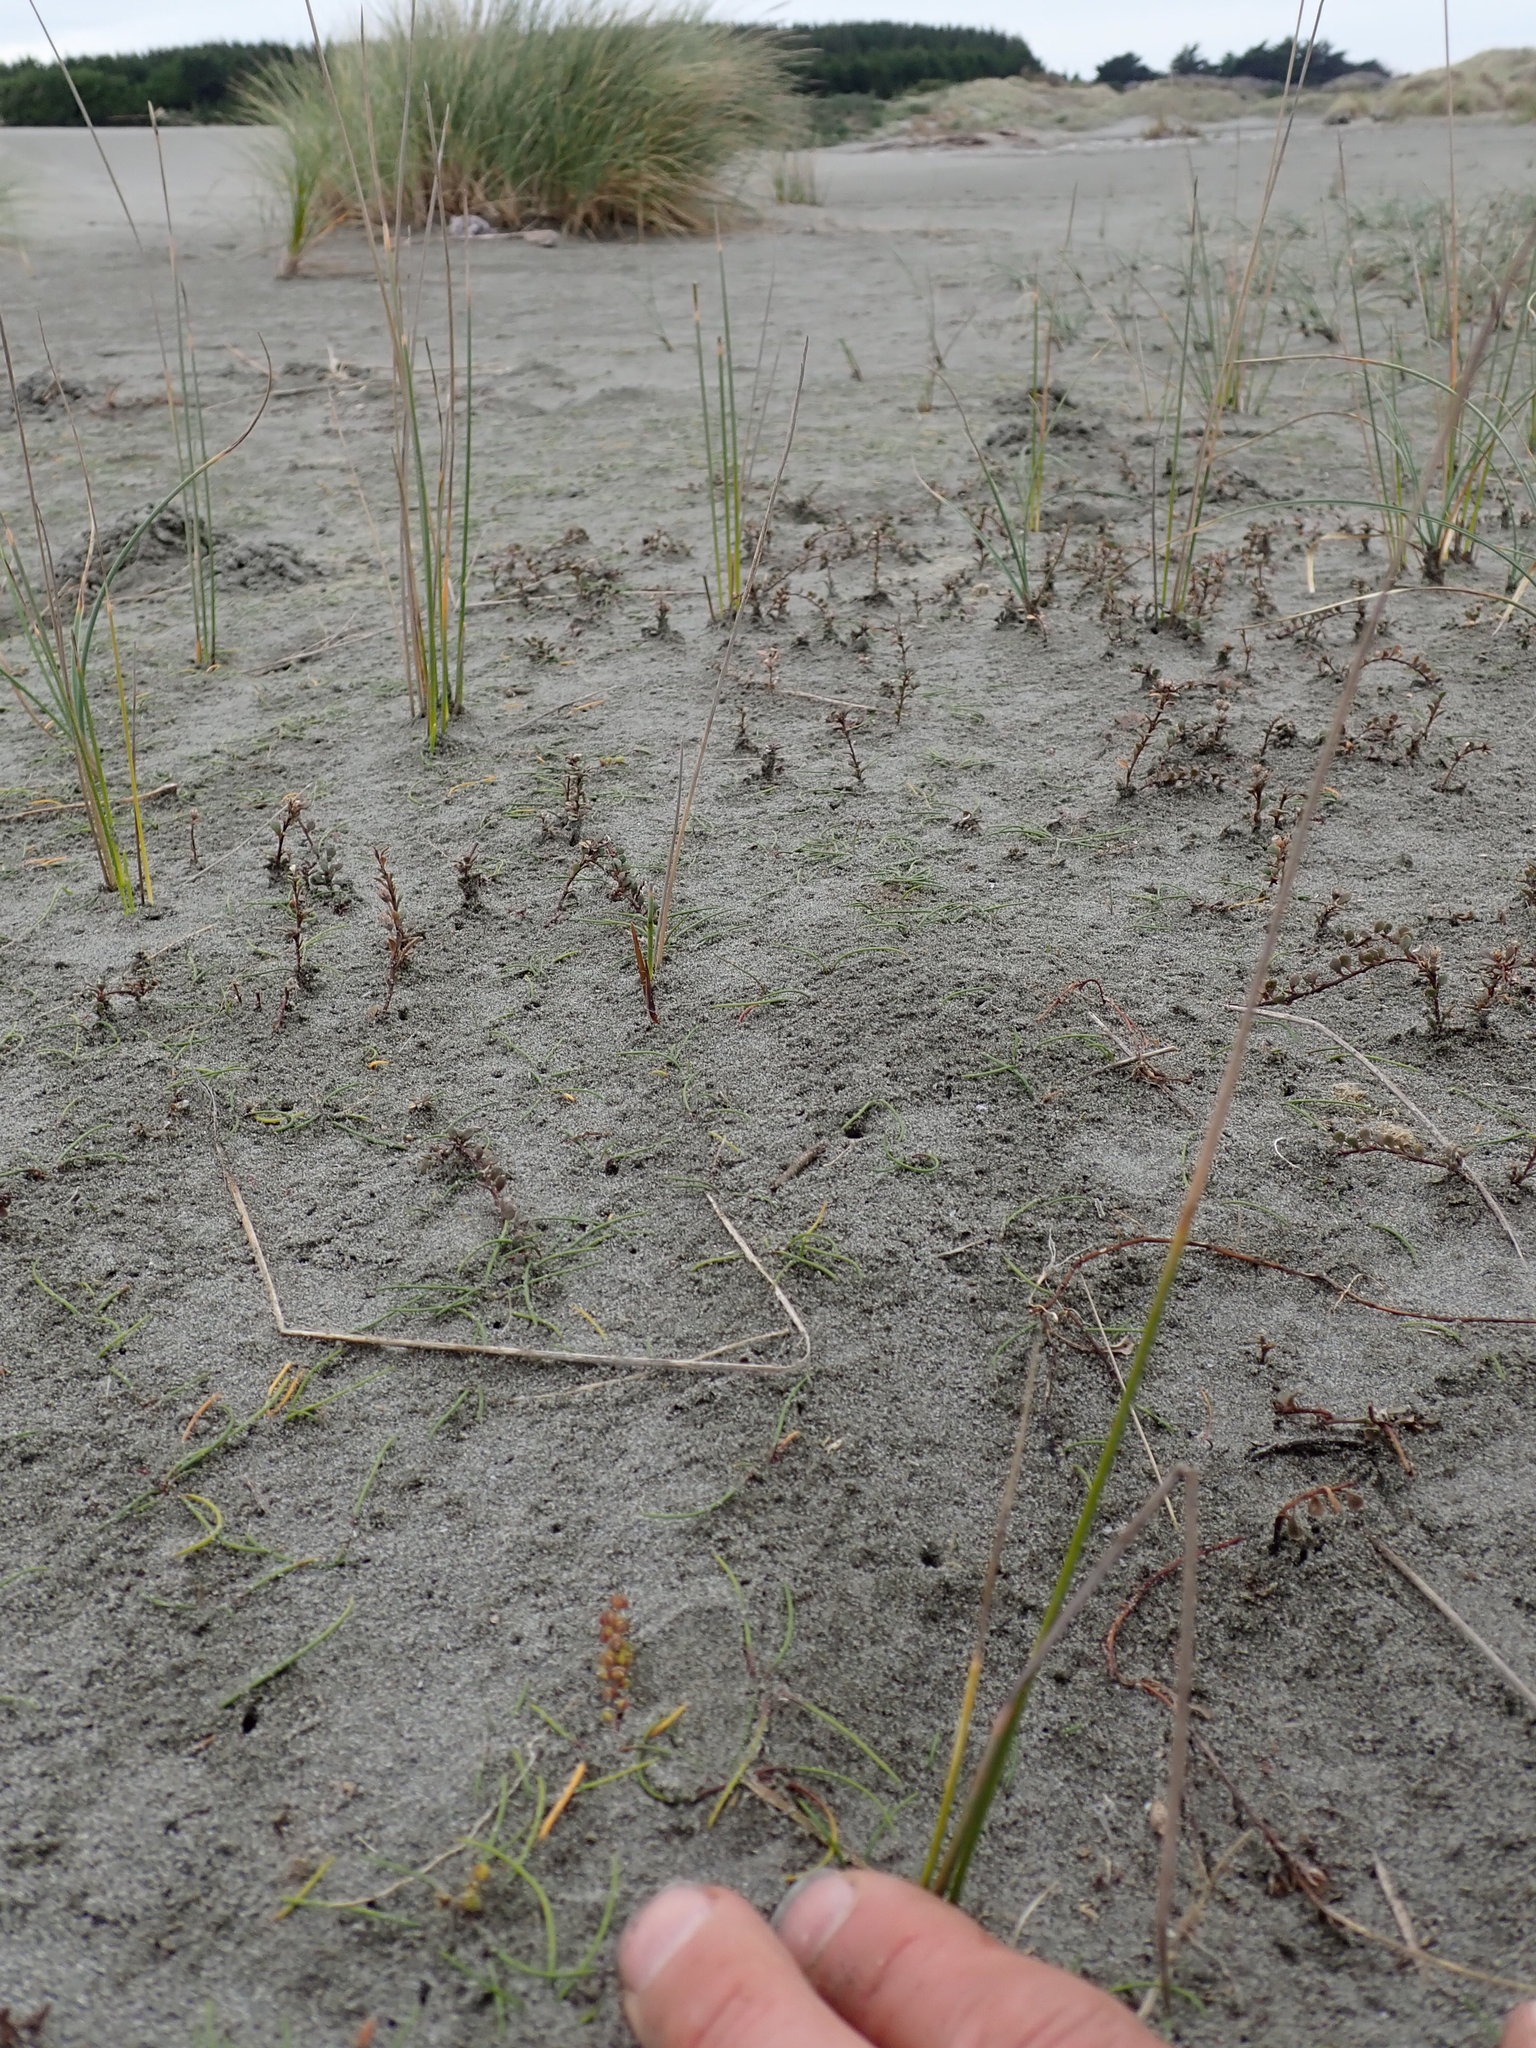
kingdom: Plantae
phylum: Tracheophyta
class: Liliopsida
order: Alismatales
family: Juncaginaceae
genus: Triglochin
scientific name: Triglochin striata
